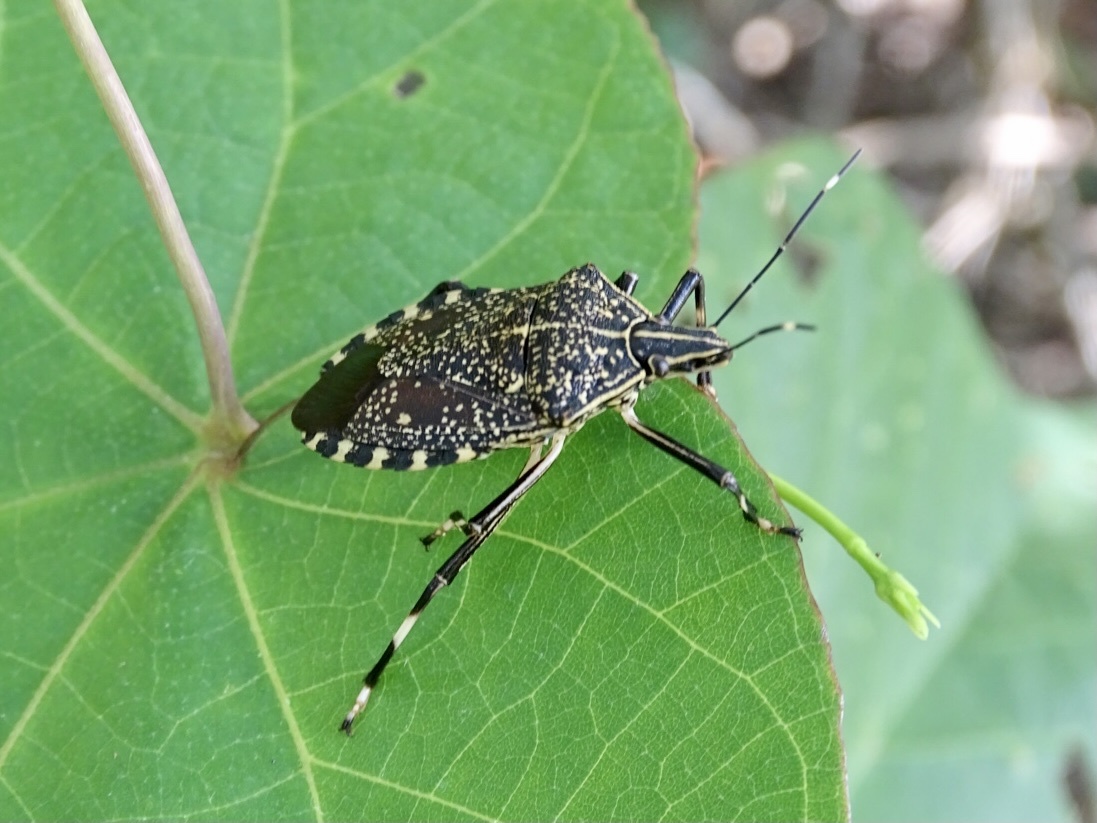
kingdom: Animalia
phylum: Arthropoda
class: Insecta
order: Hemiptera
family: Pentatomidae
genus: Erthesina
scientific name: Erthesina fullo
